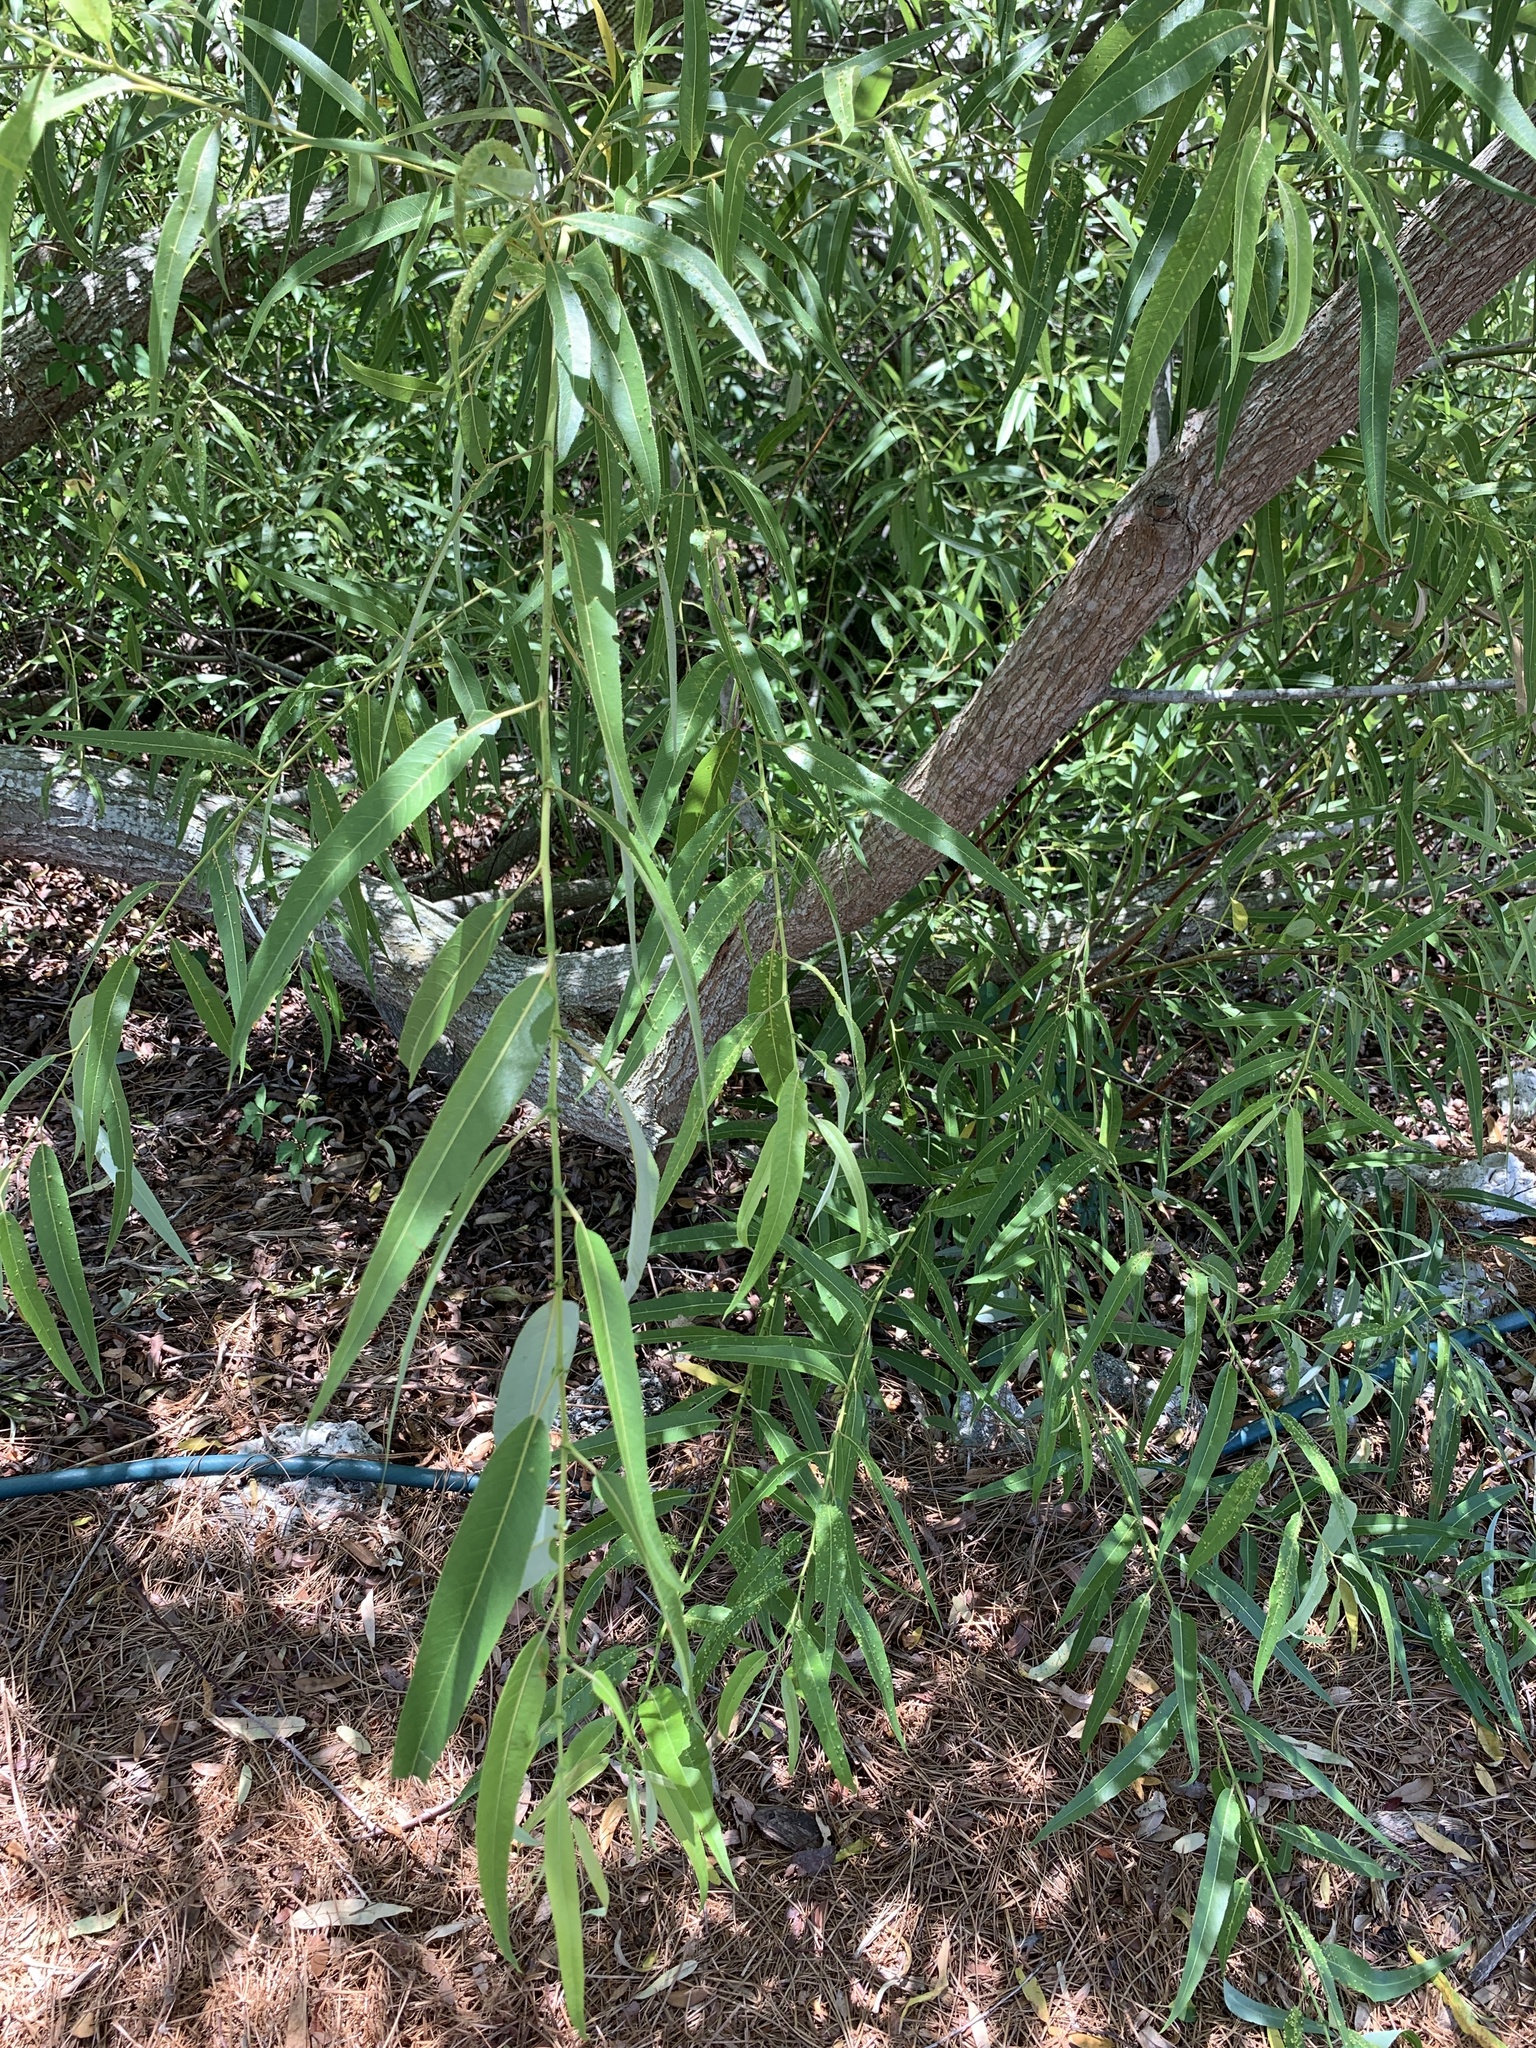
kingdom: Plantae
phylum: Tracheophyta
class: Magnoliopsida
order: Malpighiales
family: Salicaceae
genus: Salix
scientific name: Salix caroliniana
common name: Carolina willow
